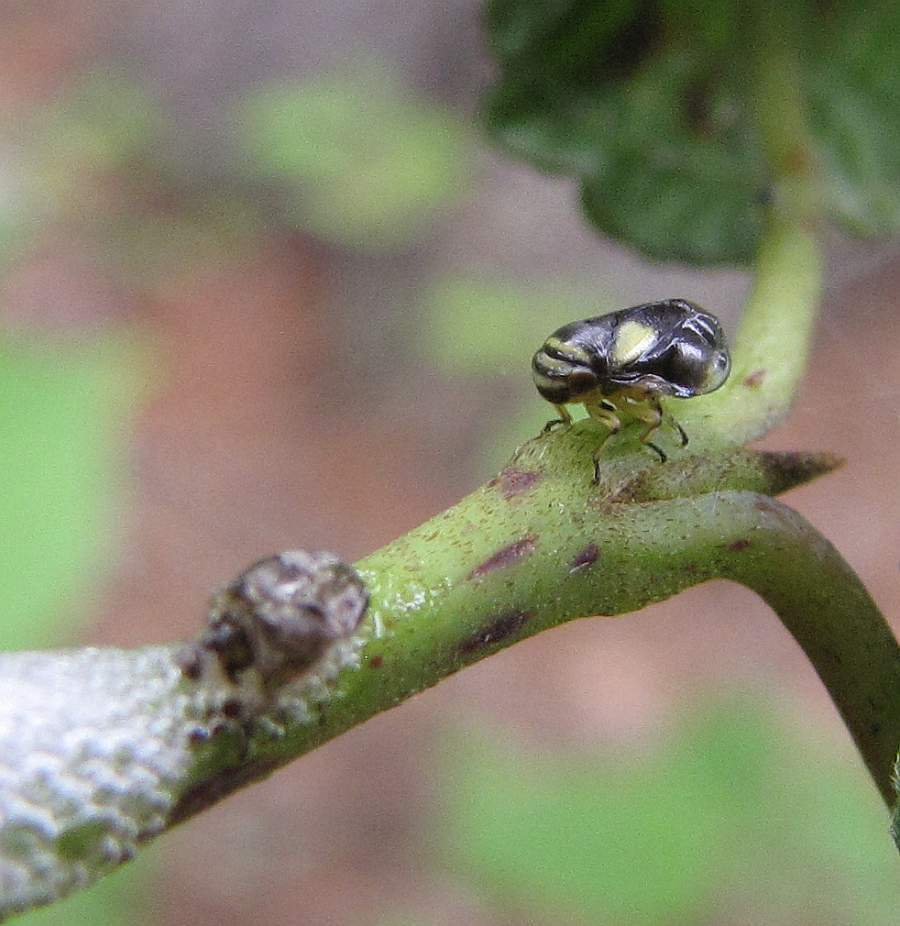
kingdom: Animalia
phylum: Arthropoda
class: Insecta
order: Hemiptera
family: Clastopteridae
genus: Clastoptera
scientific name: Clastoptera proteus
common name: Dogwood spittlebug
